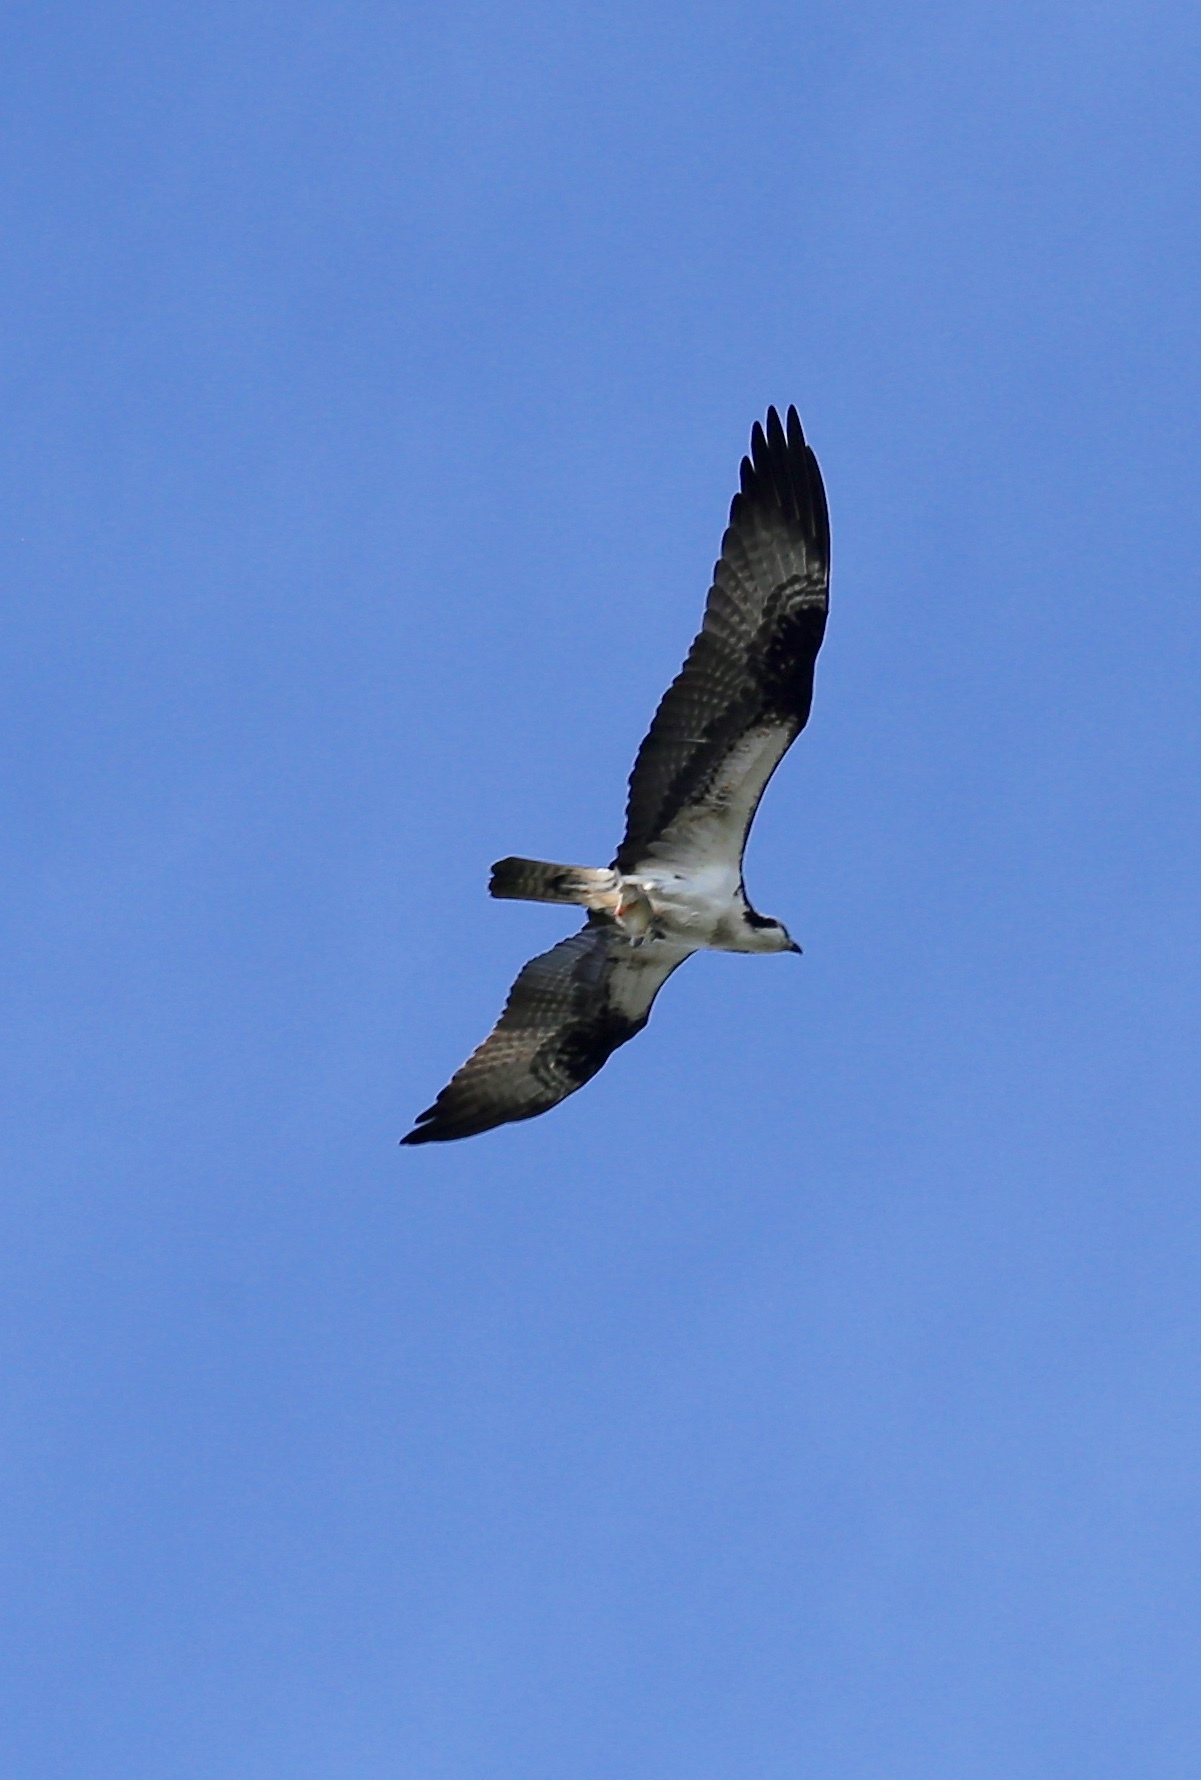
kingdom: Animalia
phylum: Chordata
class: Aves
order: Accipitriformes
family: Pandionidae
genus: Pandion
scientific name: Pandion haliaetus
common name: Osprey
